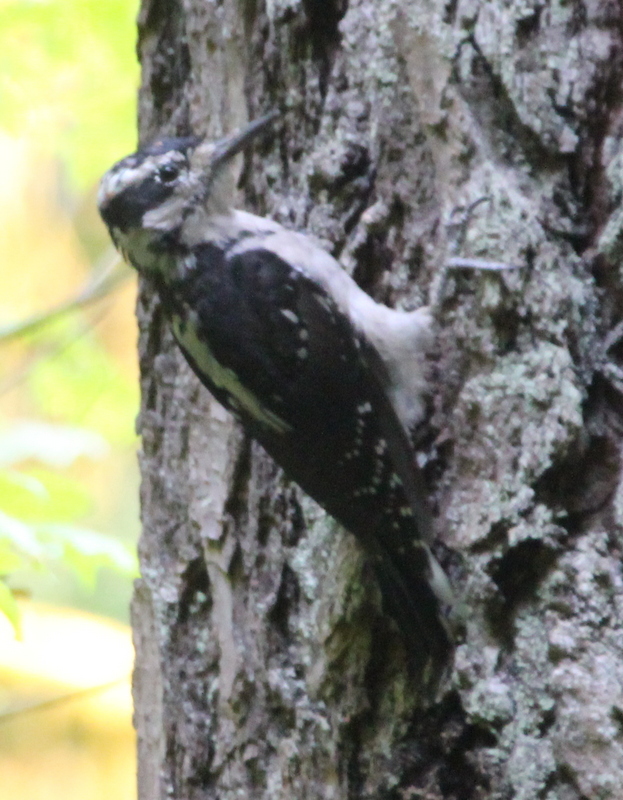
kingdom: Animalia
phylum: Chordata
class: Aves
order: Piciformes
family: Picidae
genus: Leuconotopicus
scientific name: Leuconotopicus villosus
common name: Hairy woodpecker
